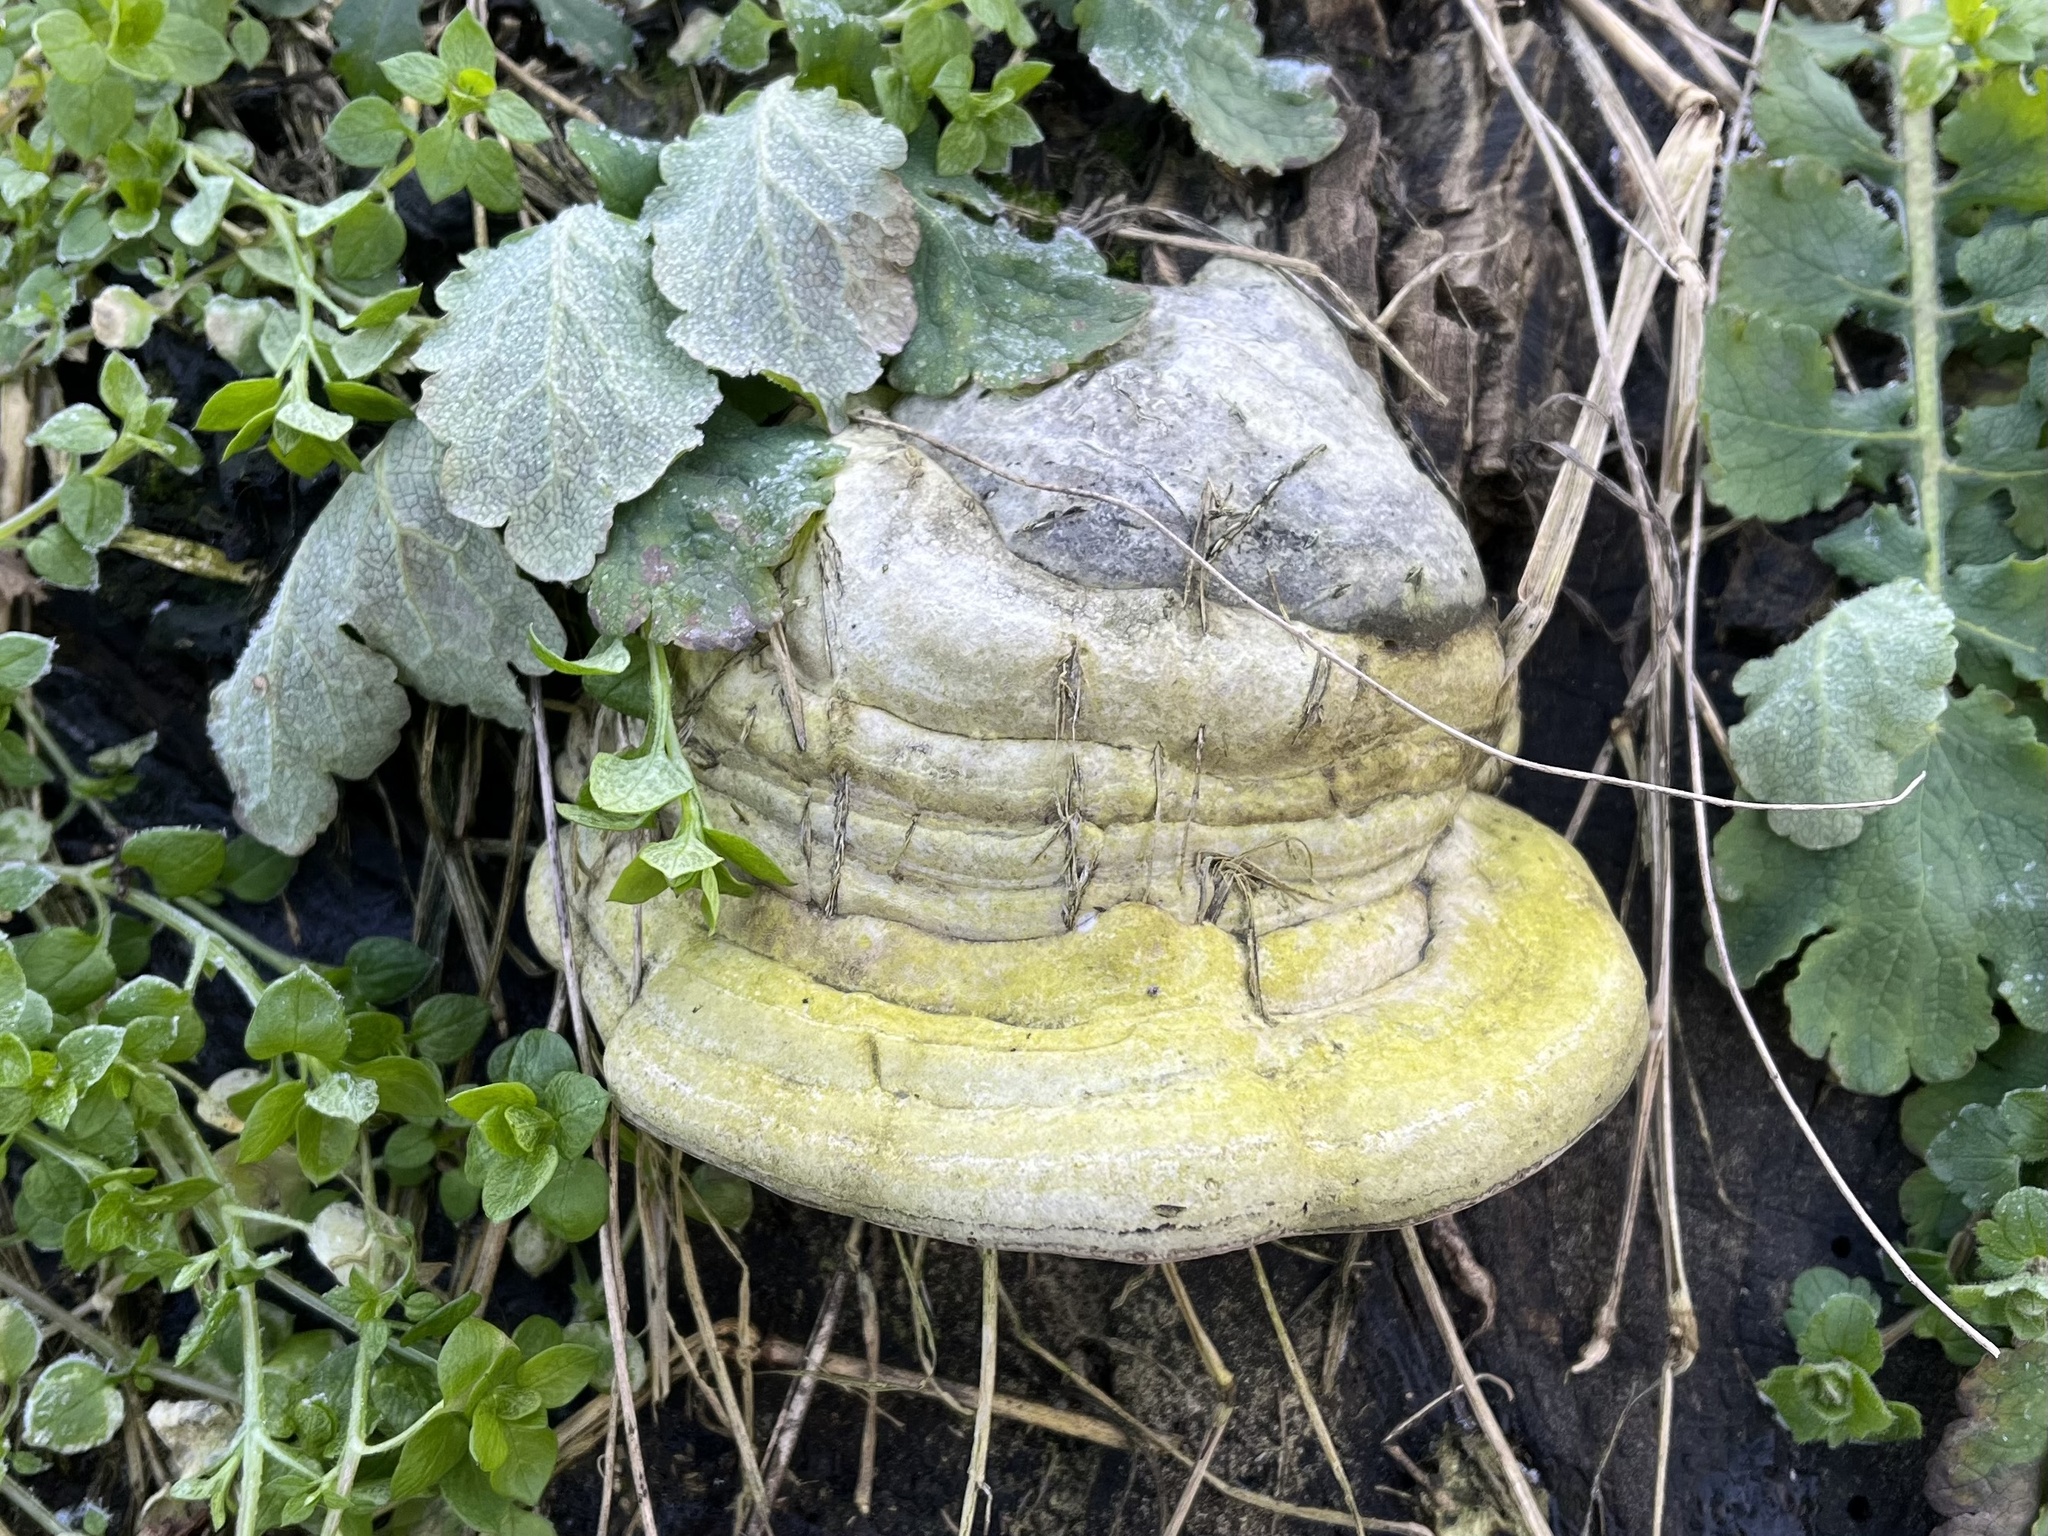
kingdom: Fungi
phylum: Basidiomycota
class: Agaricomycetes
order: Polyporales
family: Polyporaceae
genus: Fomes
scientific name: Fomes fomentarius
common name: Hoof fungus
